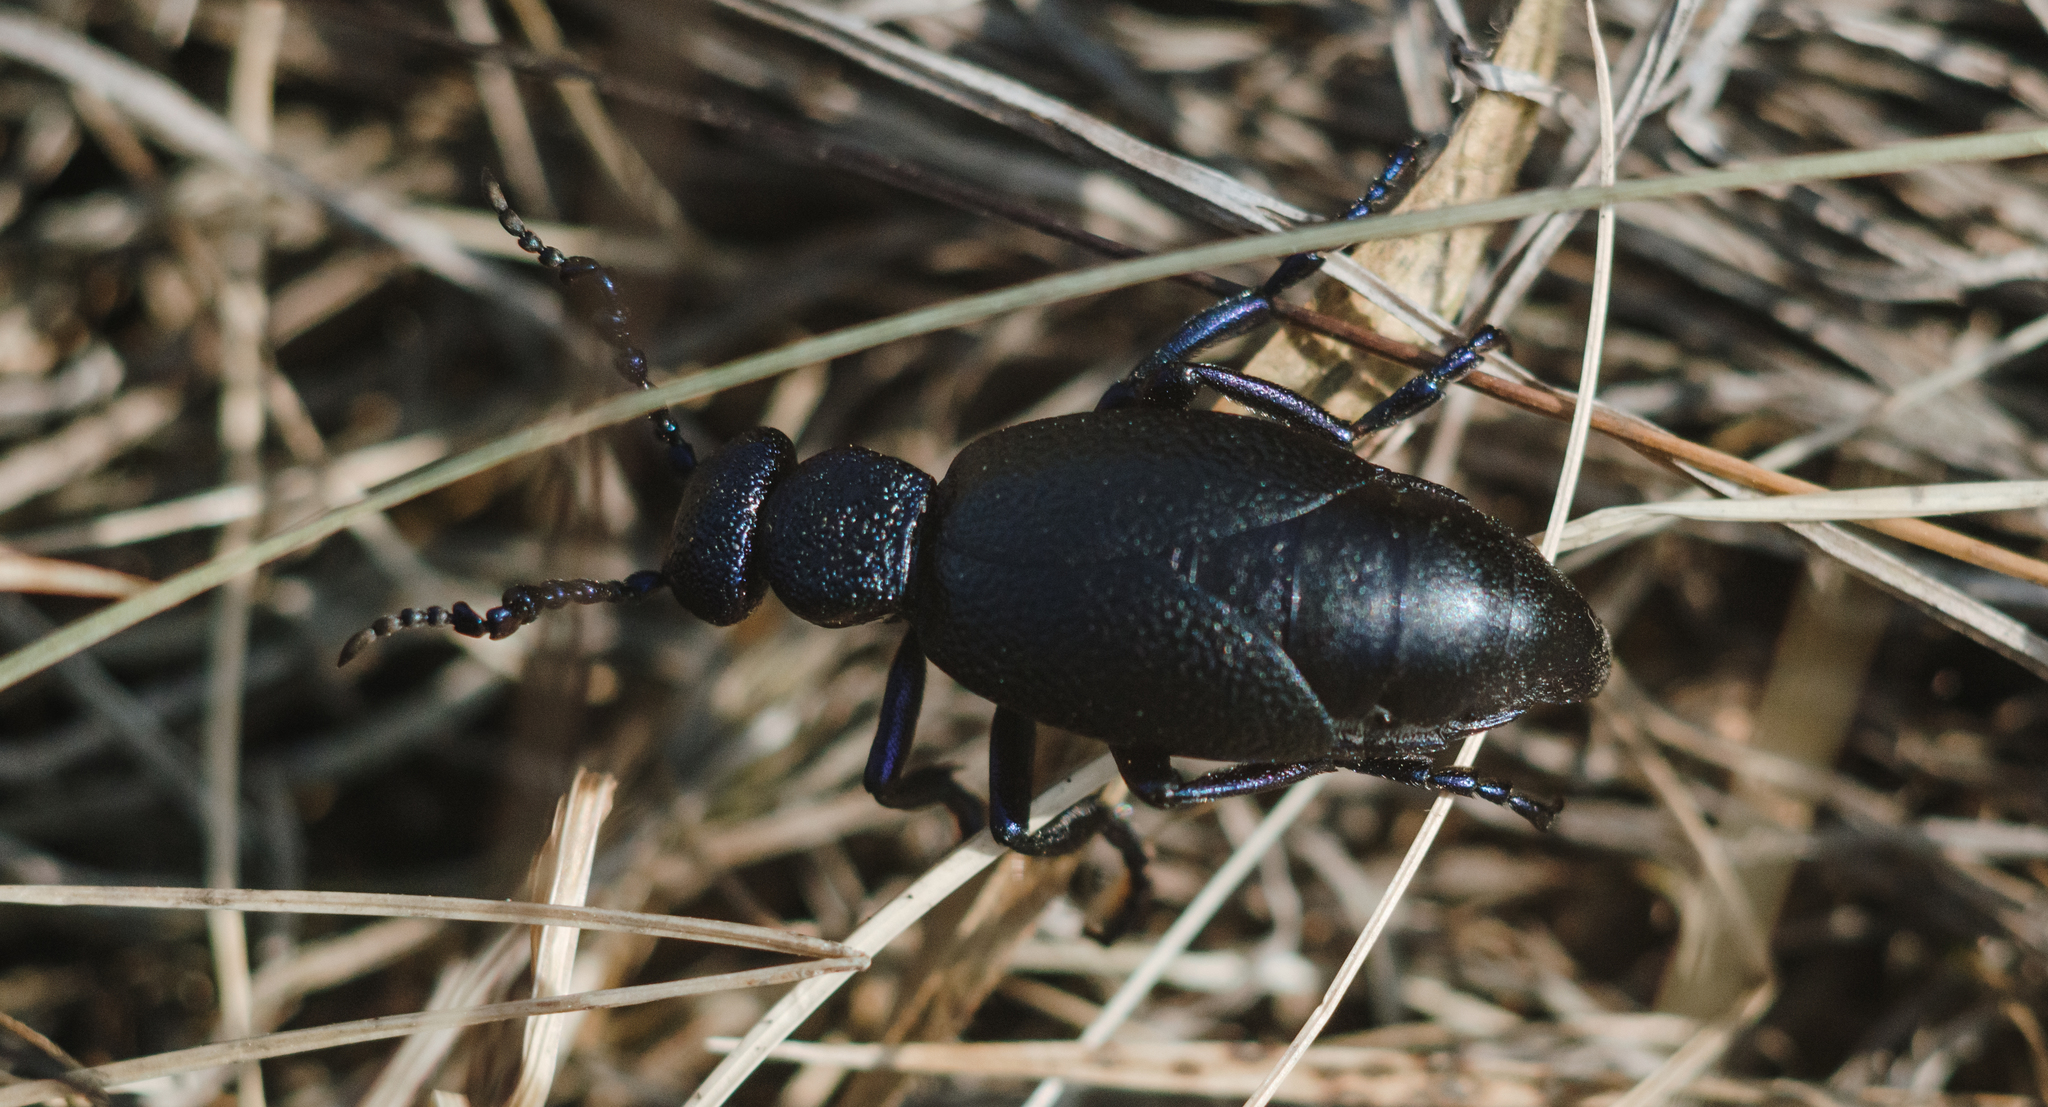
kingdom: Animalia
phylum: Arthropoda
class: Insecta
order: Coleoptera
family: Meloidae
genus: Meloe
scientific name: Meloe proscarabaeus
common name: Black oil-beetle
